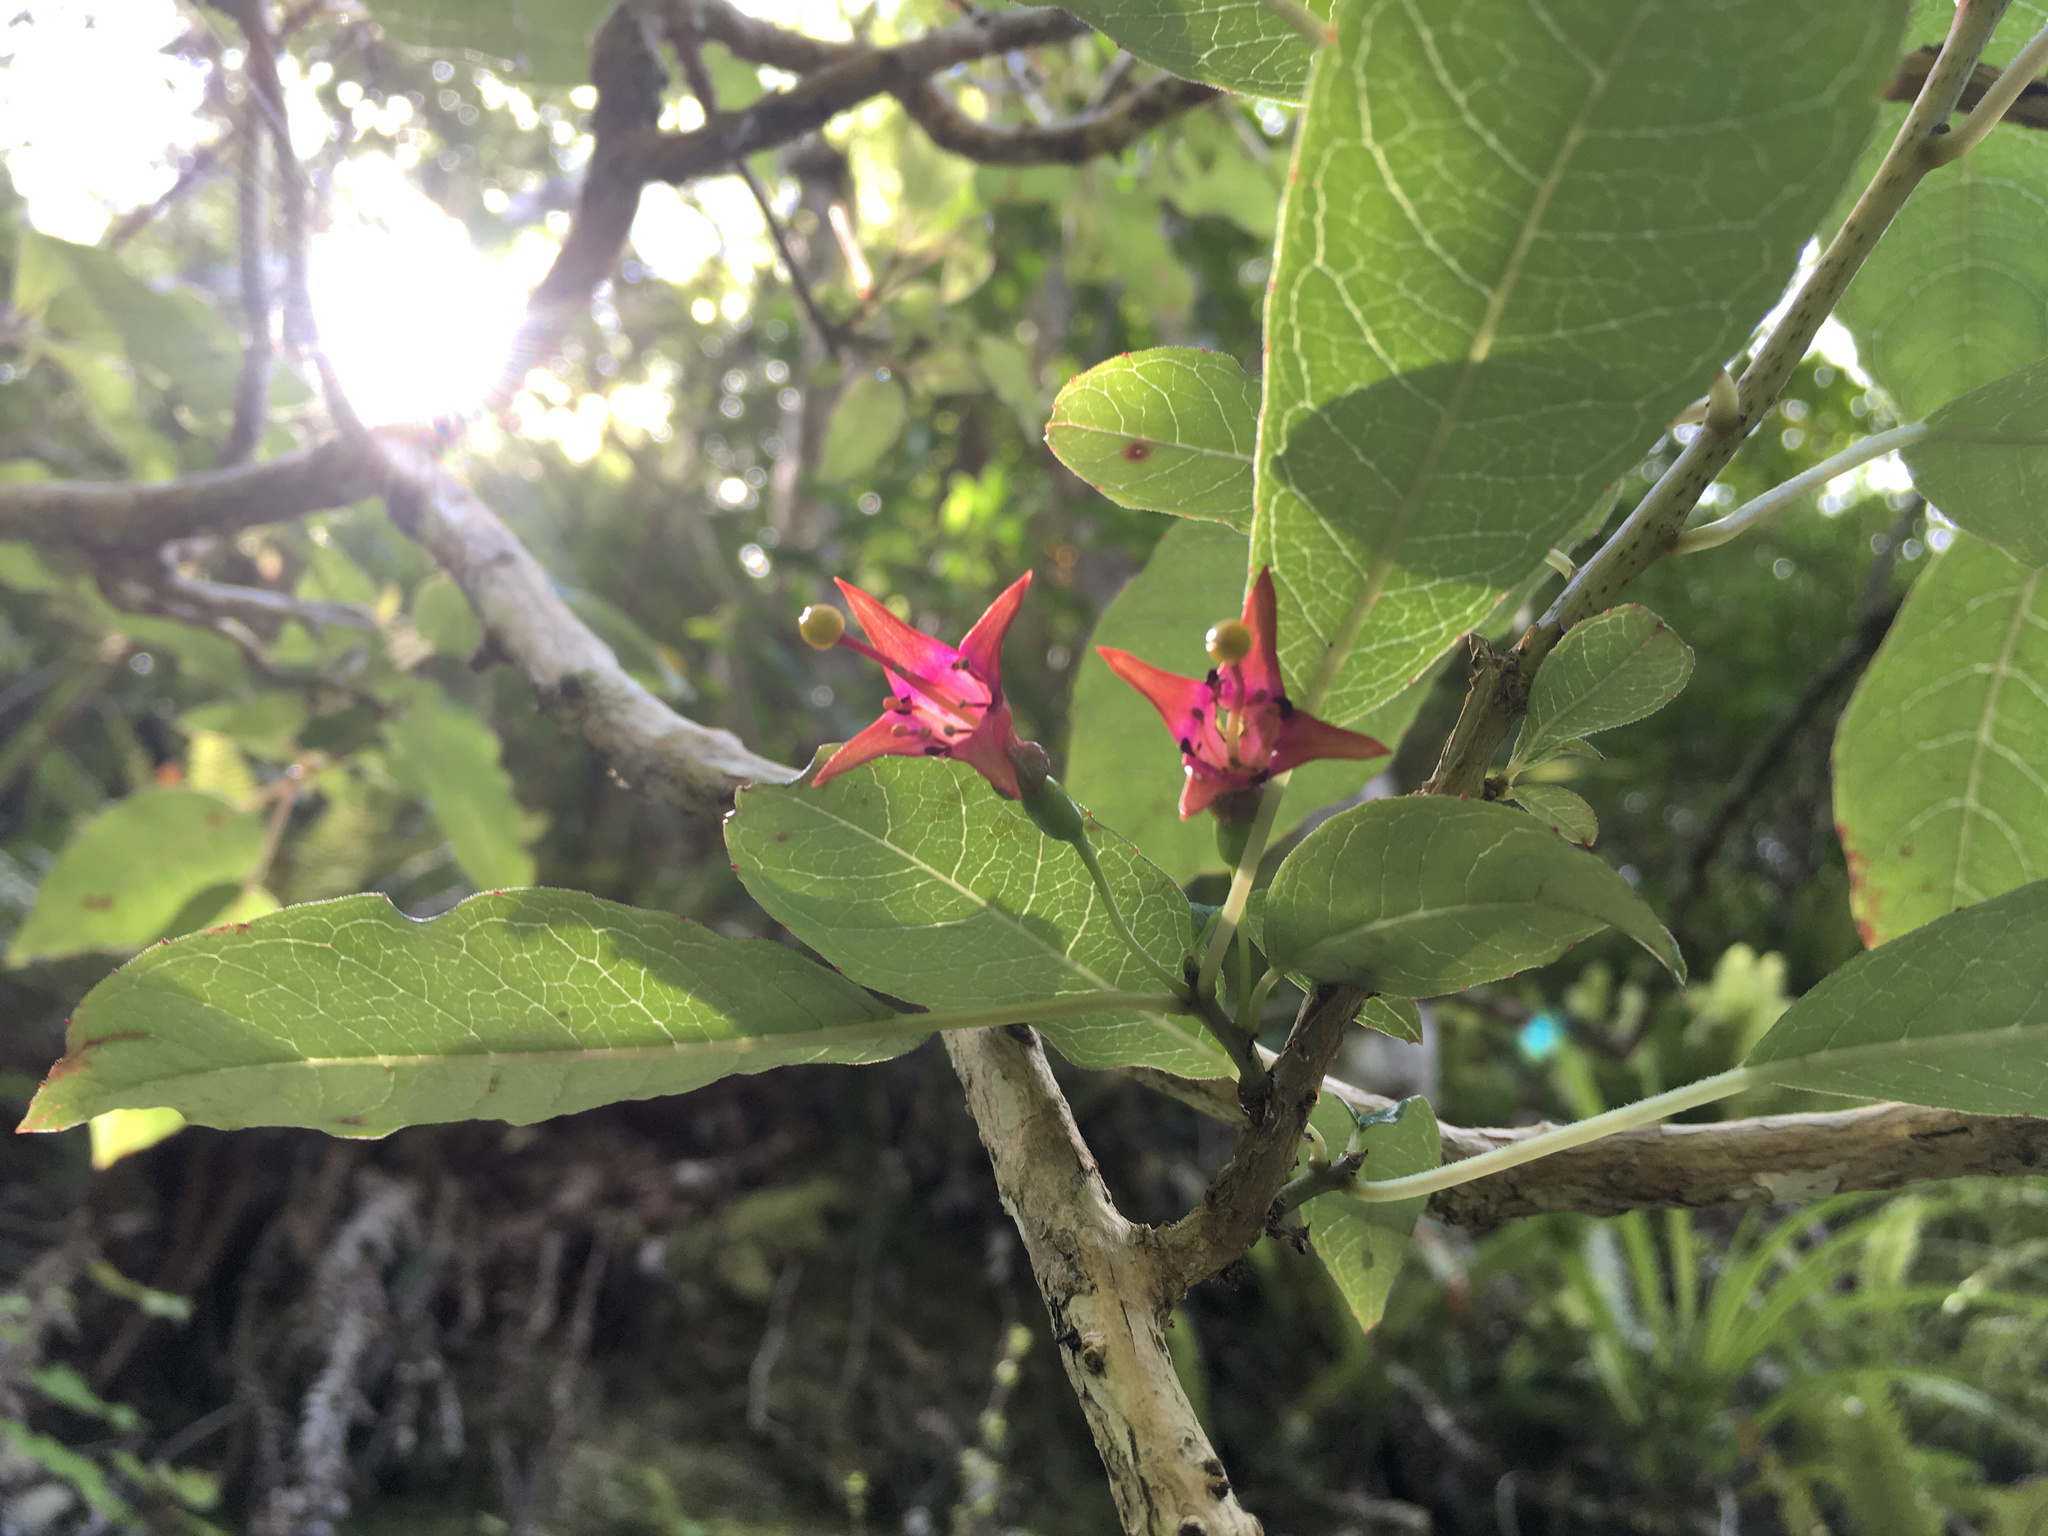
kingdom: Plantae
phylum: Tracheophyta
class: Magnoliopsida
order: Myrtales
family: Onagraceae
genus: Fuchsia
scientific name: Fuchsia excorticata
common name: Tree fuchsia
